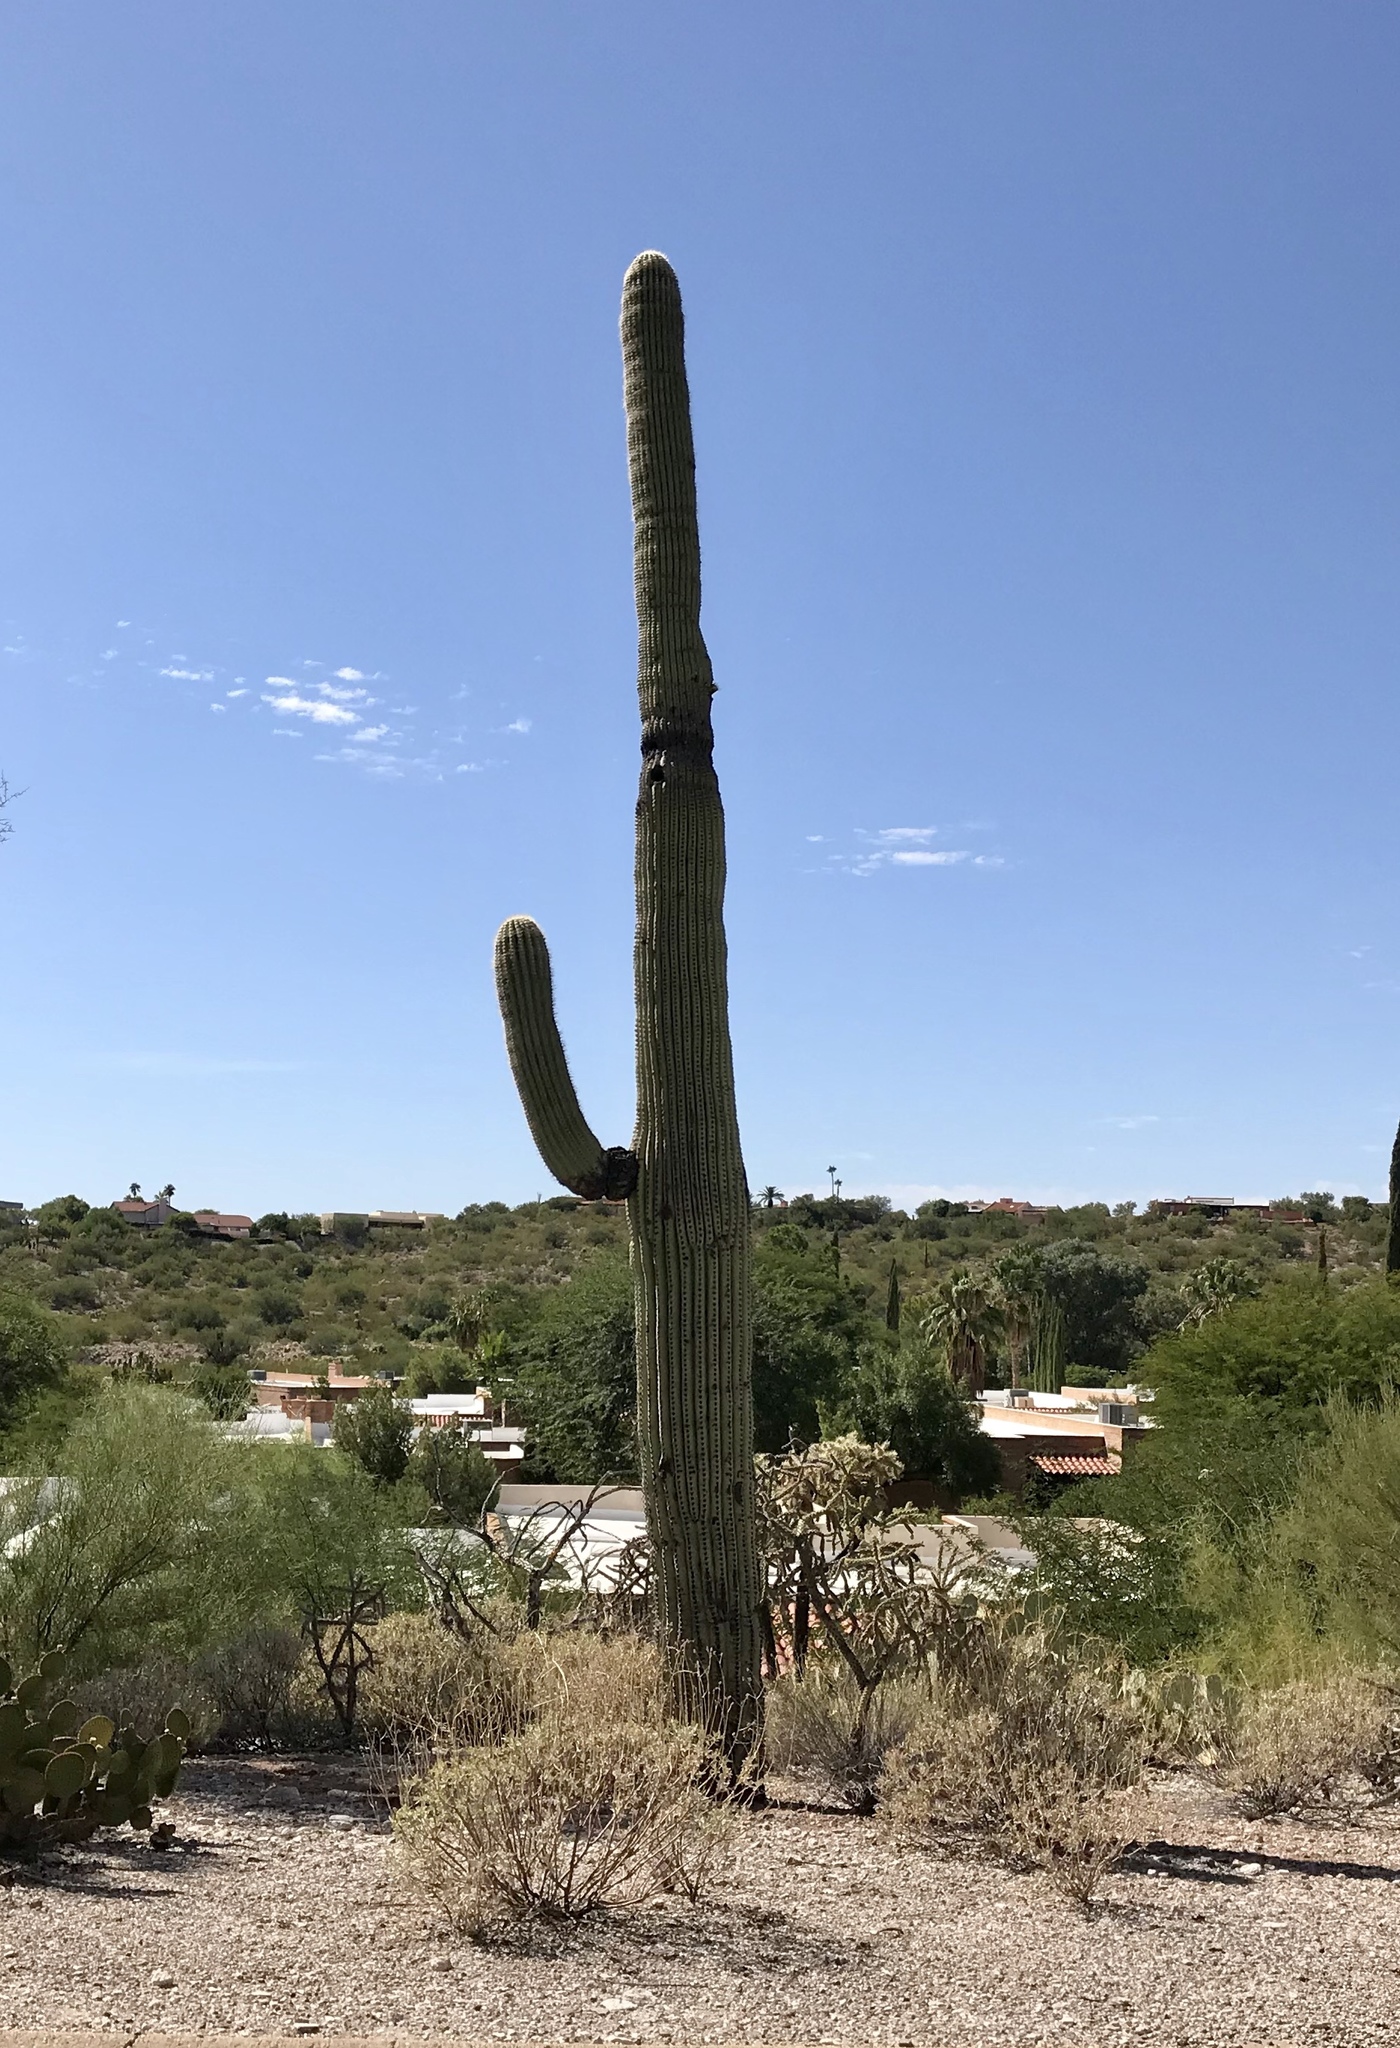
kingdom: Plantae
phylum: Tracheophyta
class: Magnoliopsida
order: Caryophyllales
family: Cactaceae
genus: Carnegiea
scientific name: Carnegiea gigantea
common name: Saguaro
